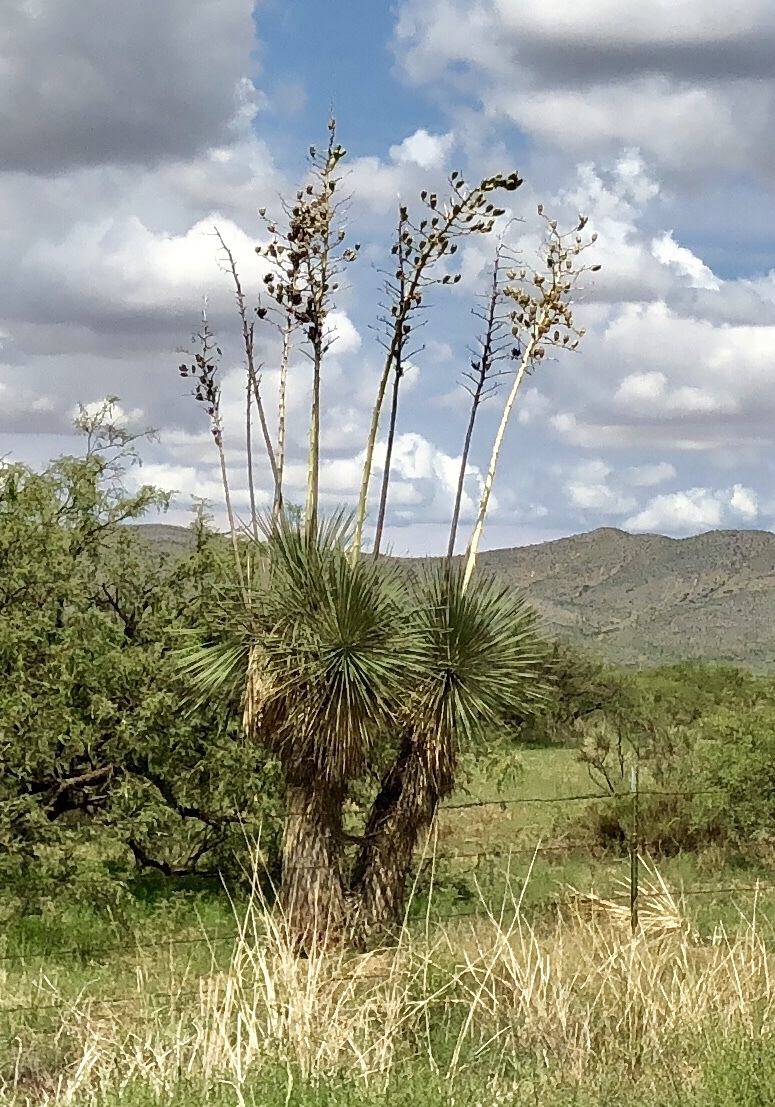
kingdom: Plantae
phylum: Tracheophyta
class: Liliopsida
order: Asparagales
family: Asparagaceae
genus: Yucca
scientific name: Yucca elata
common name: Palmella
